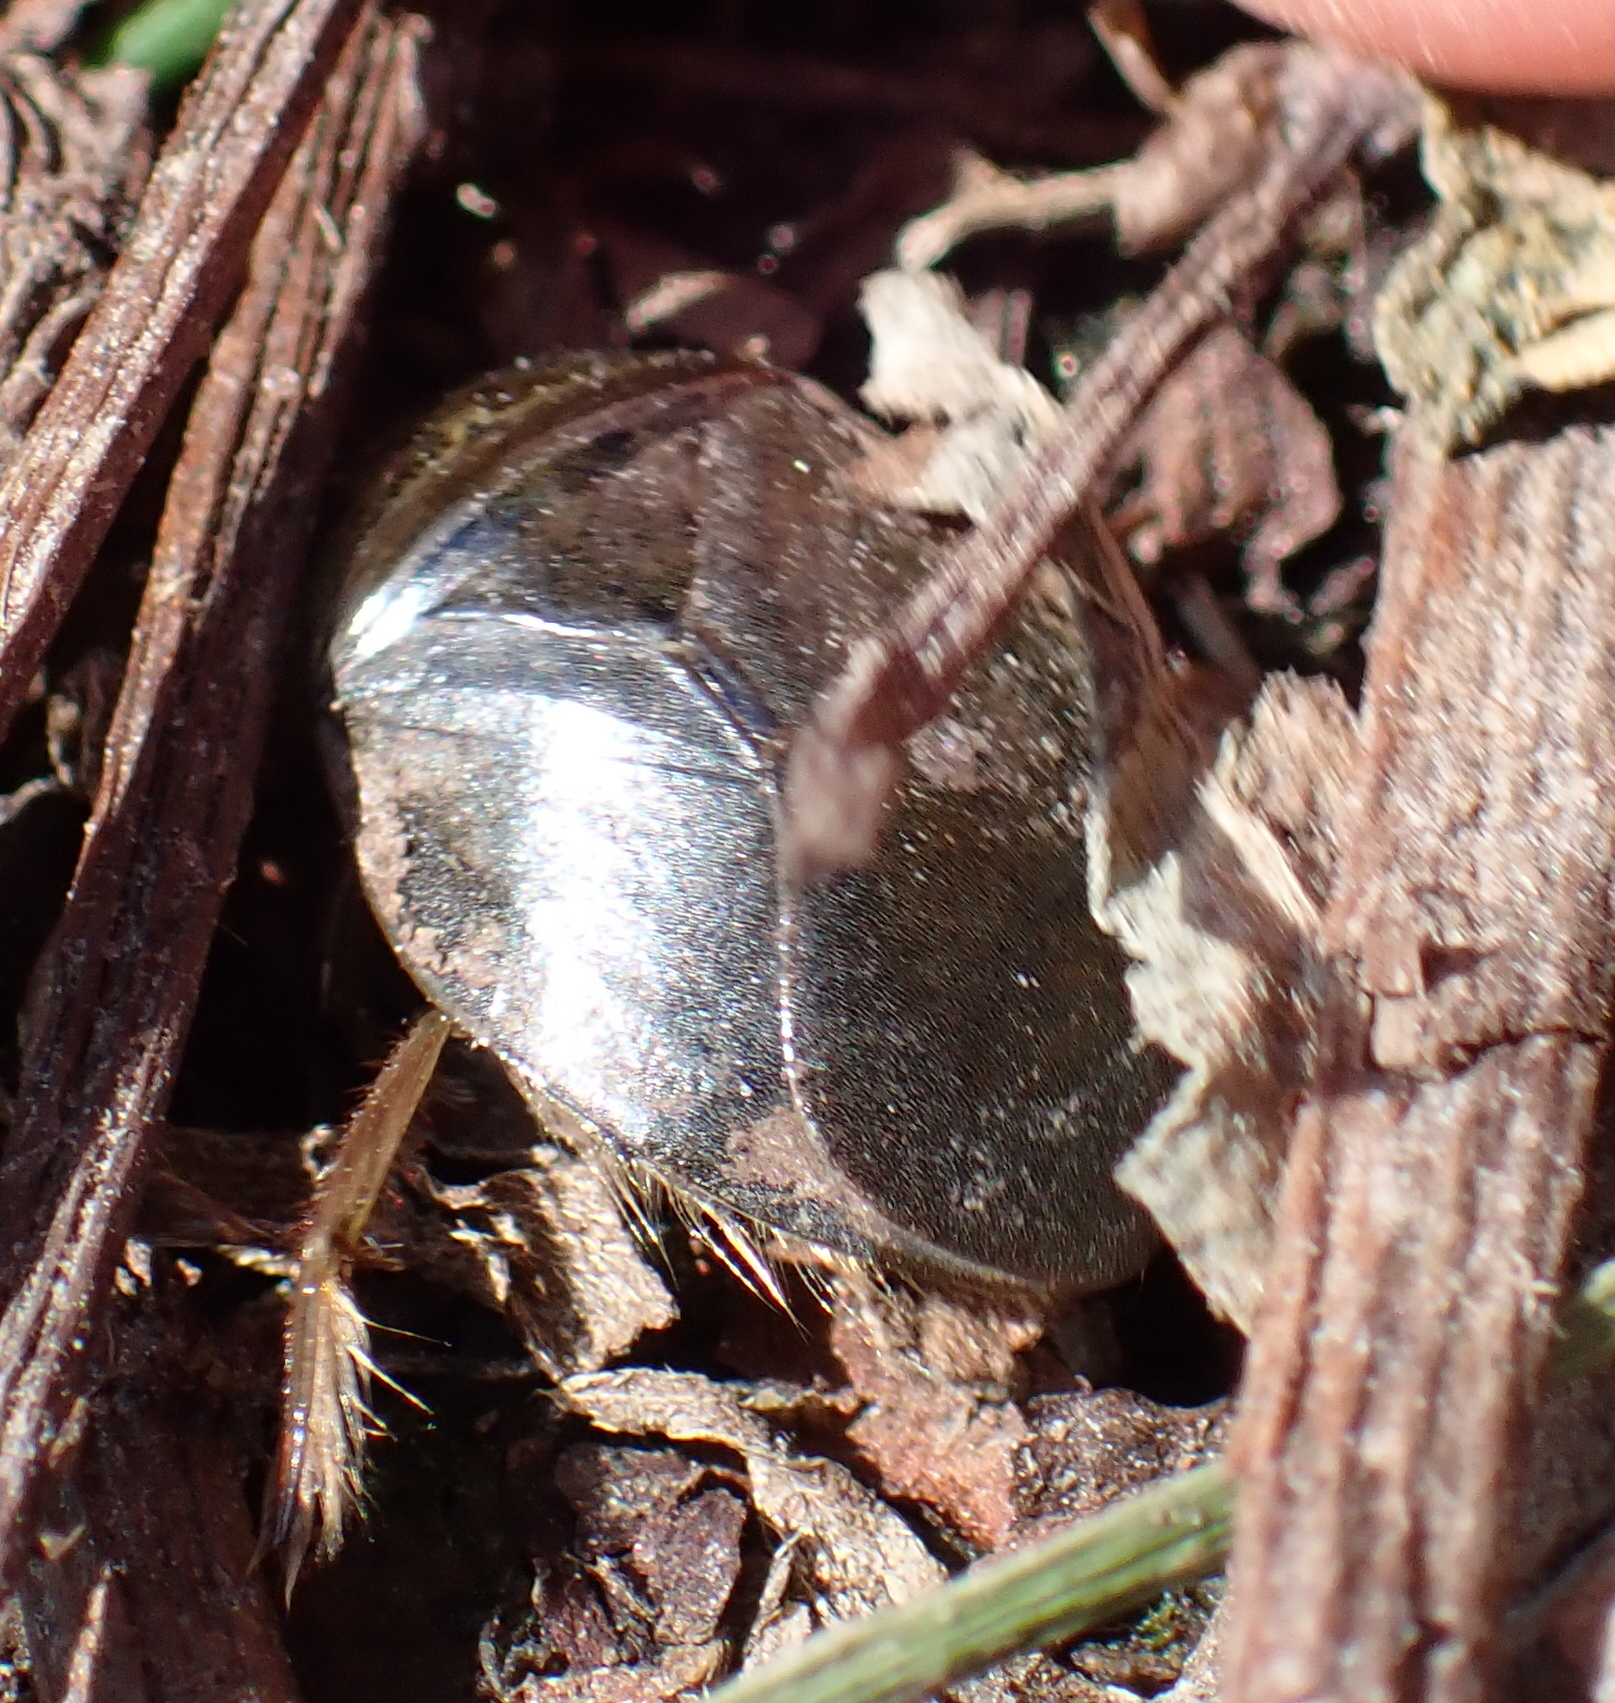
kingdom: Animalia
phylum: Arthropoda
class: Insecta
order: Hemiptera
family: Naucoridae
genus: Ilyocoris
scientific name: Ilyocoris cimicoides
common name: Saucer bugs
